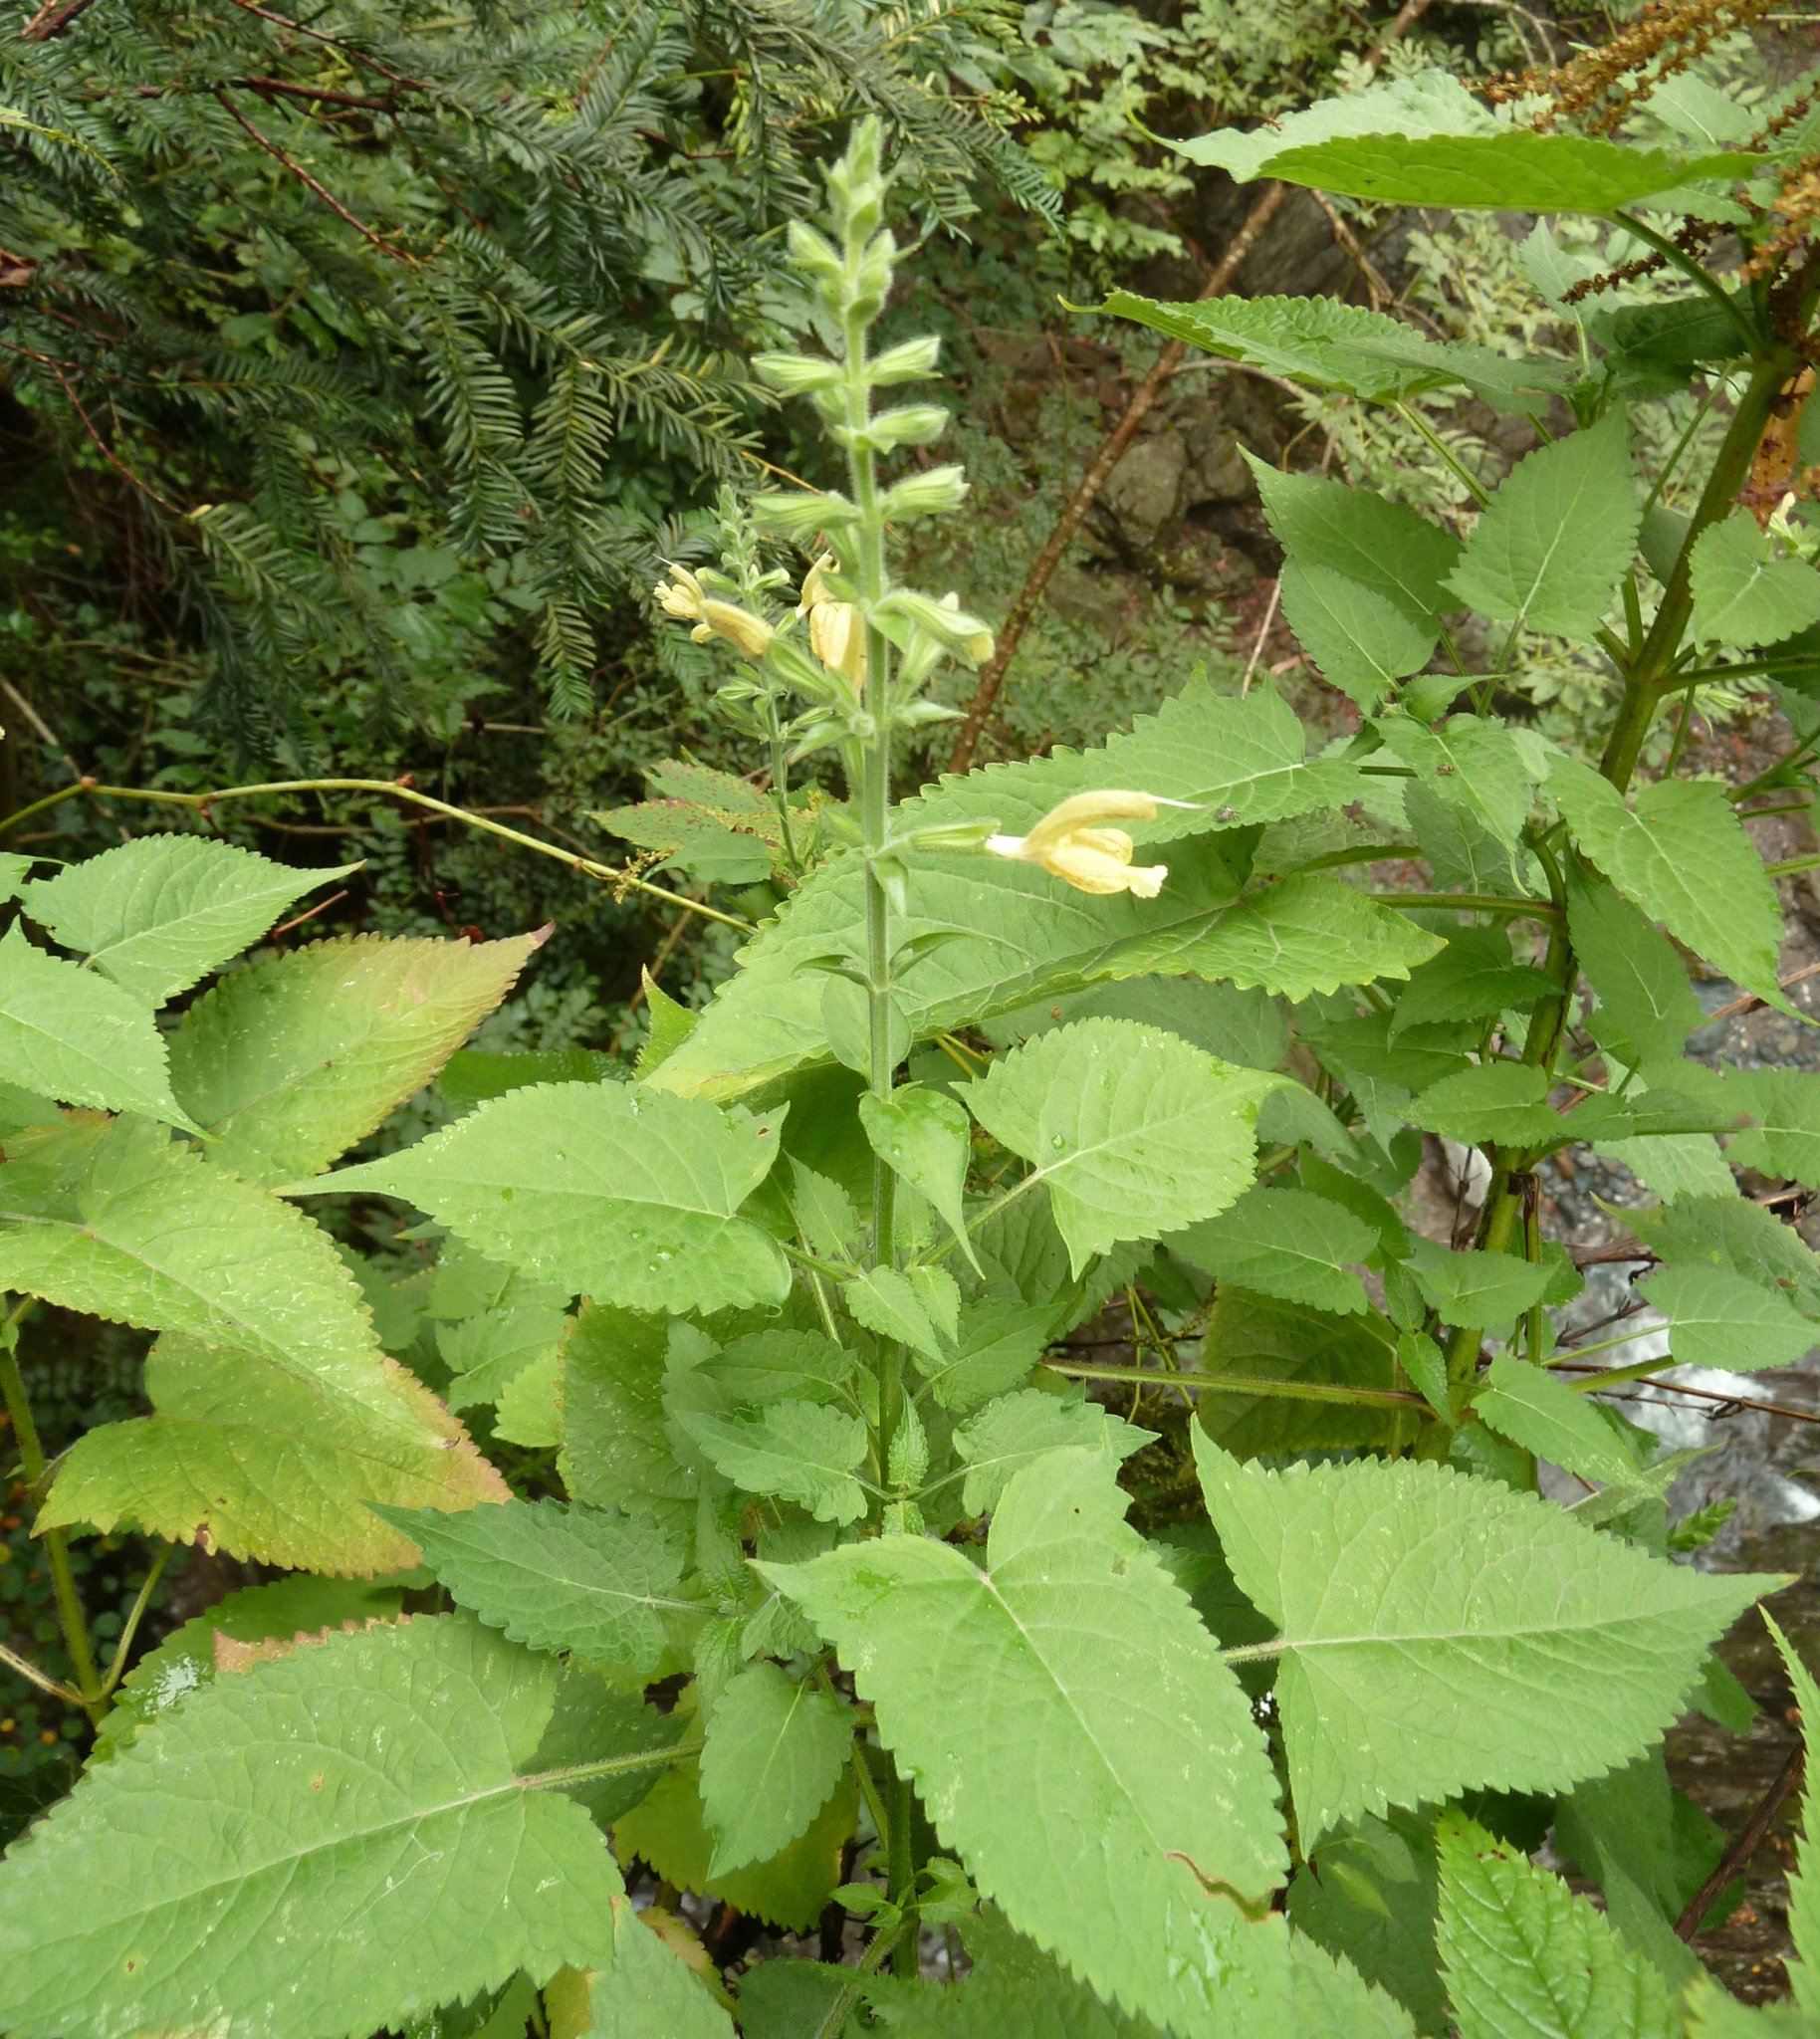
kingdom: Plantae
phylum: Tracheophyta
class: Magnoliopsida
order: Lamiales
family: Lamiaceae
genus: Salvia
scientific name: Salvia glutinosa
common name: Sticky clary
